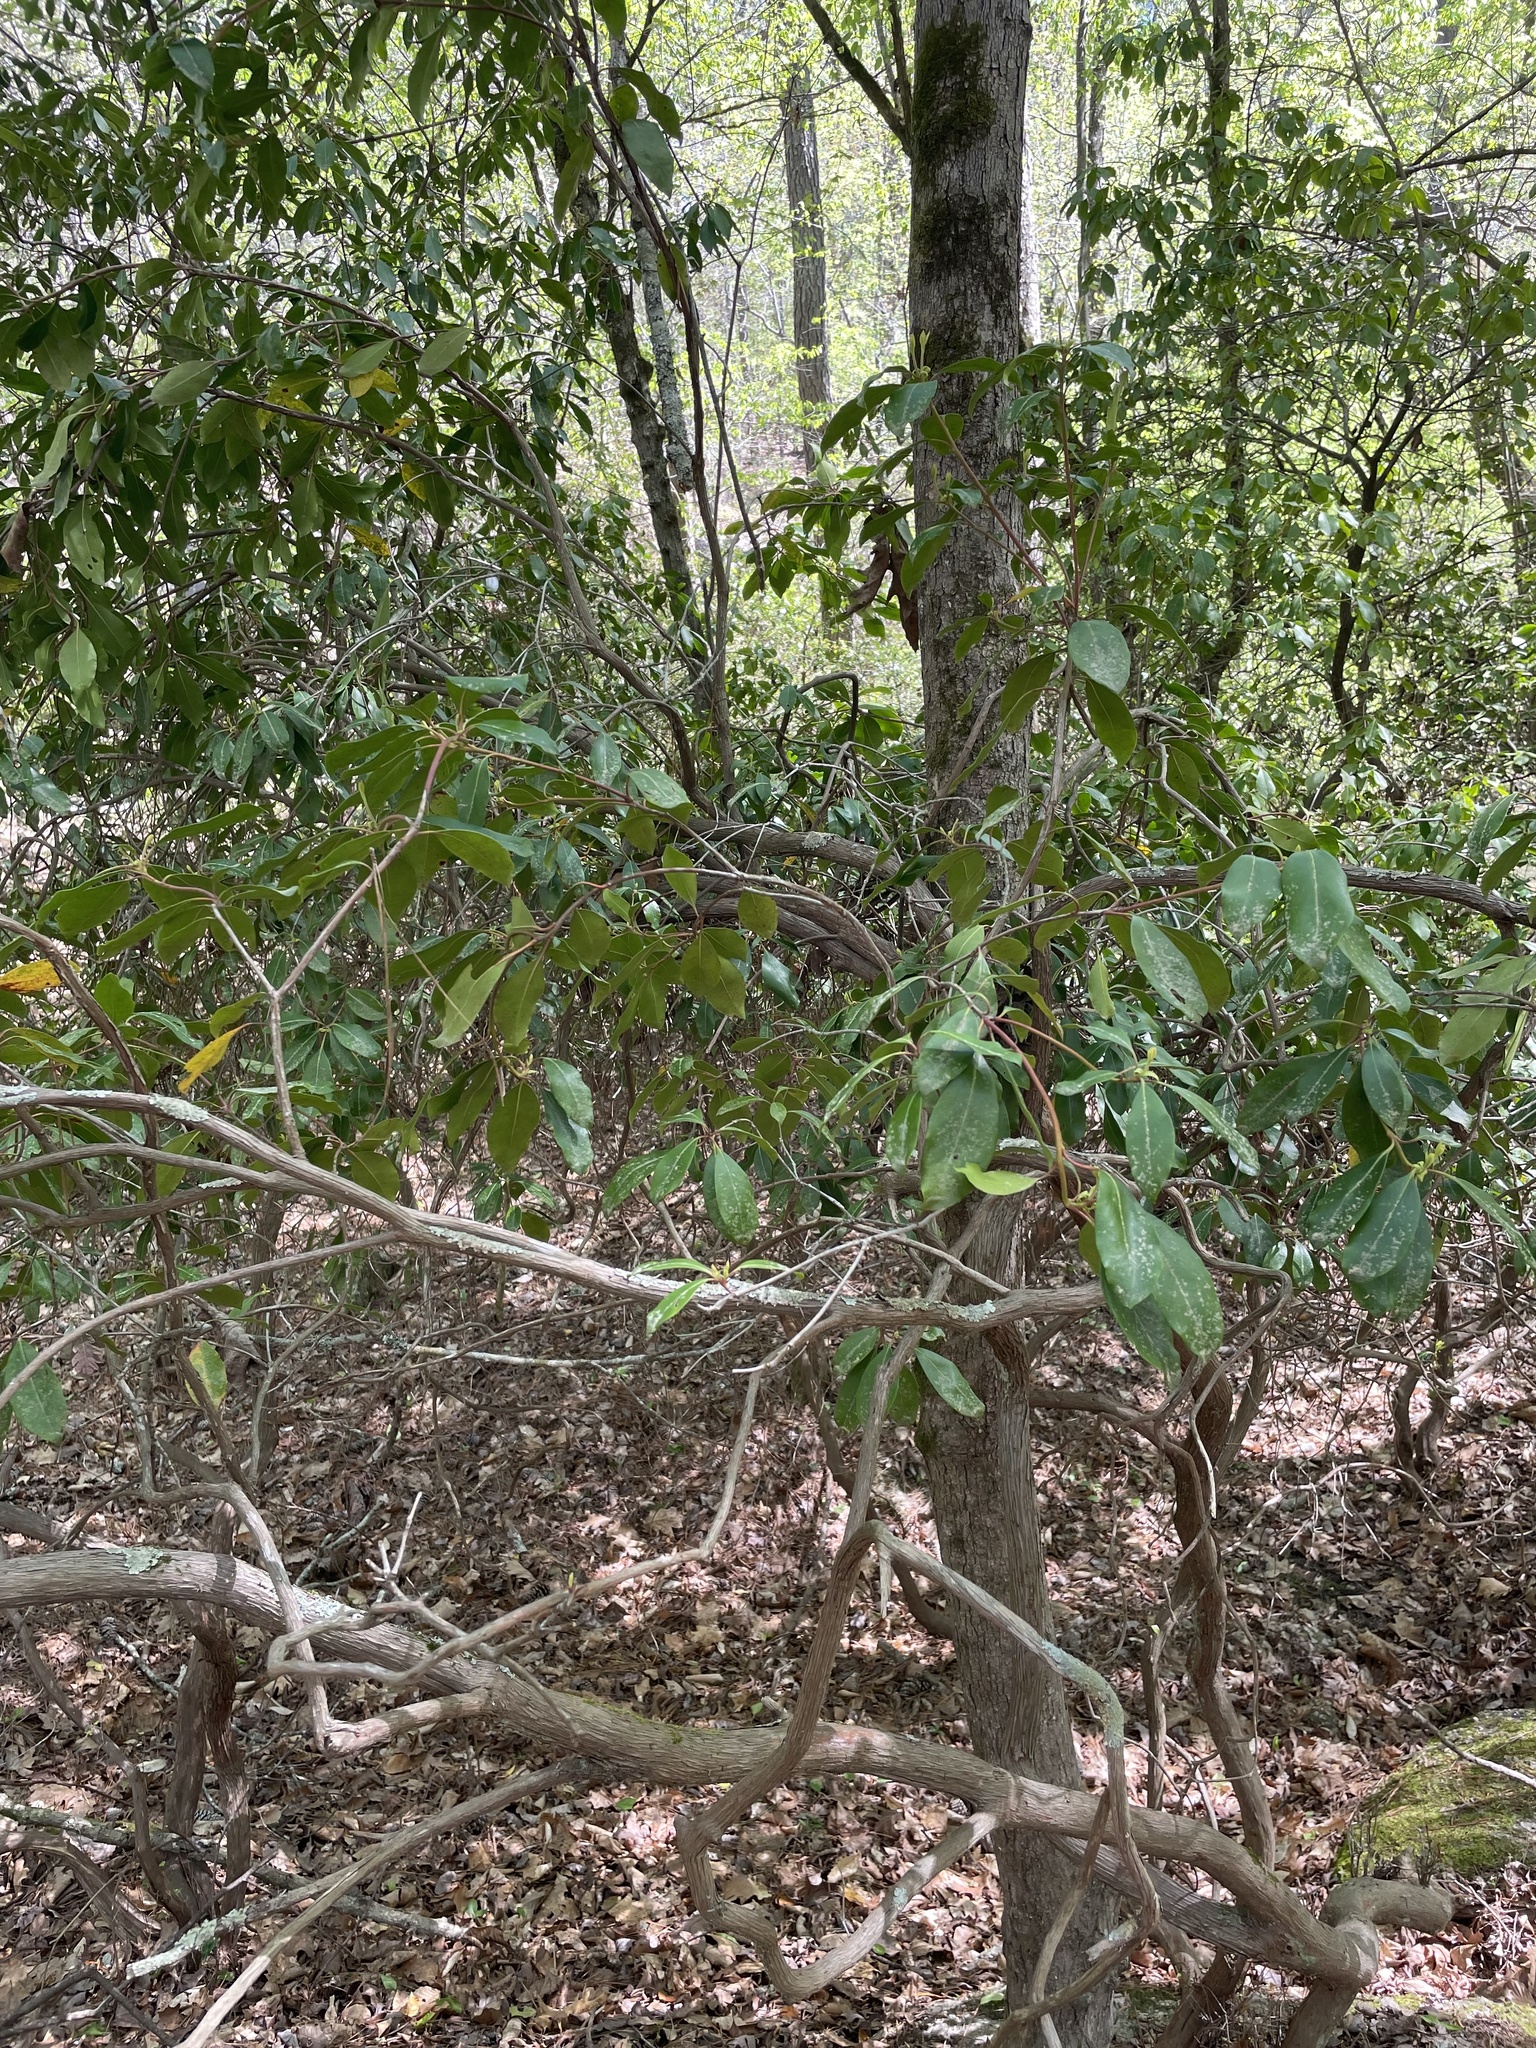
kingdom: Plantae
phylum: Tracheophyta
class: Magnoliopsida
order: Ericales
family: Ericaceae
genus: Kalmia
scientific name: Kalmia latifolia
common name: Mountain-laurel
